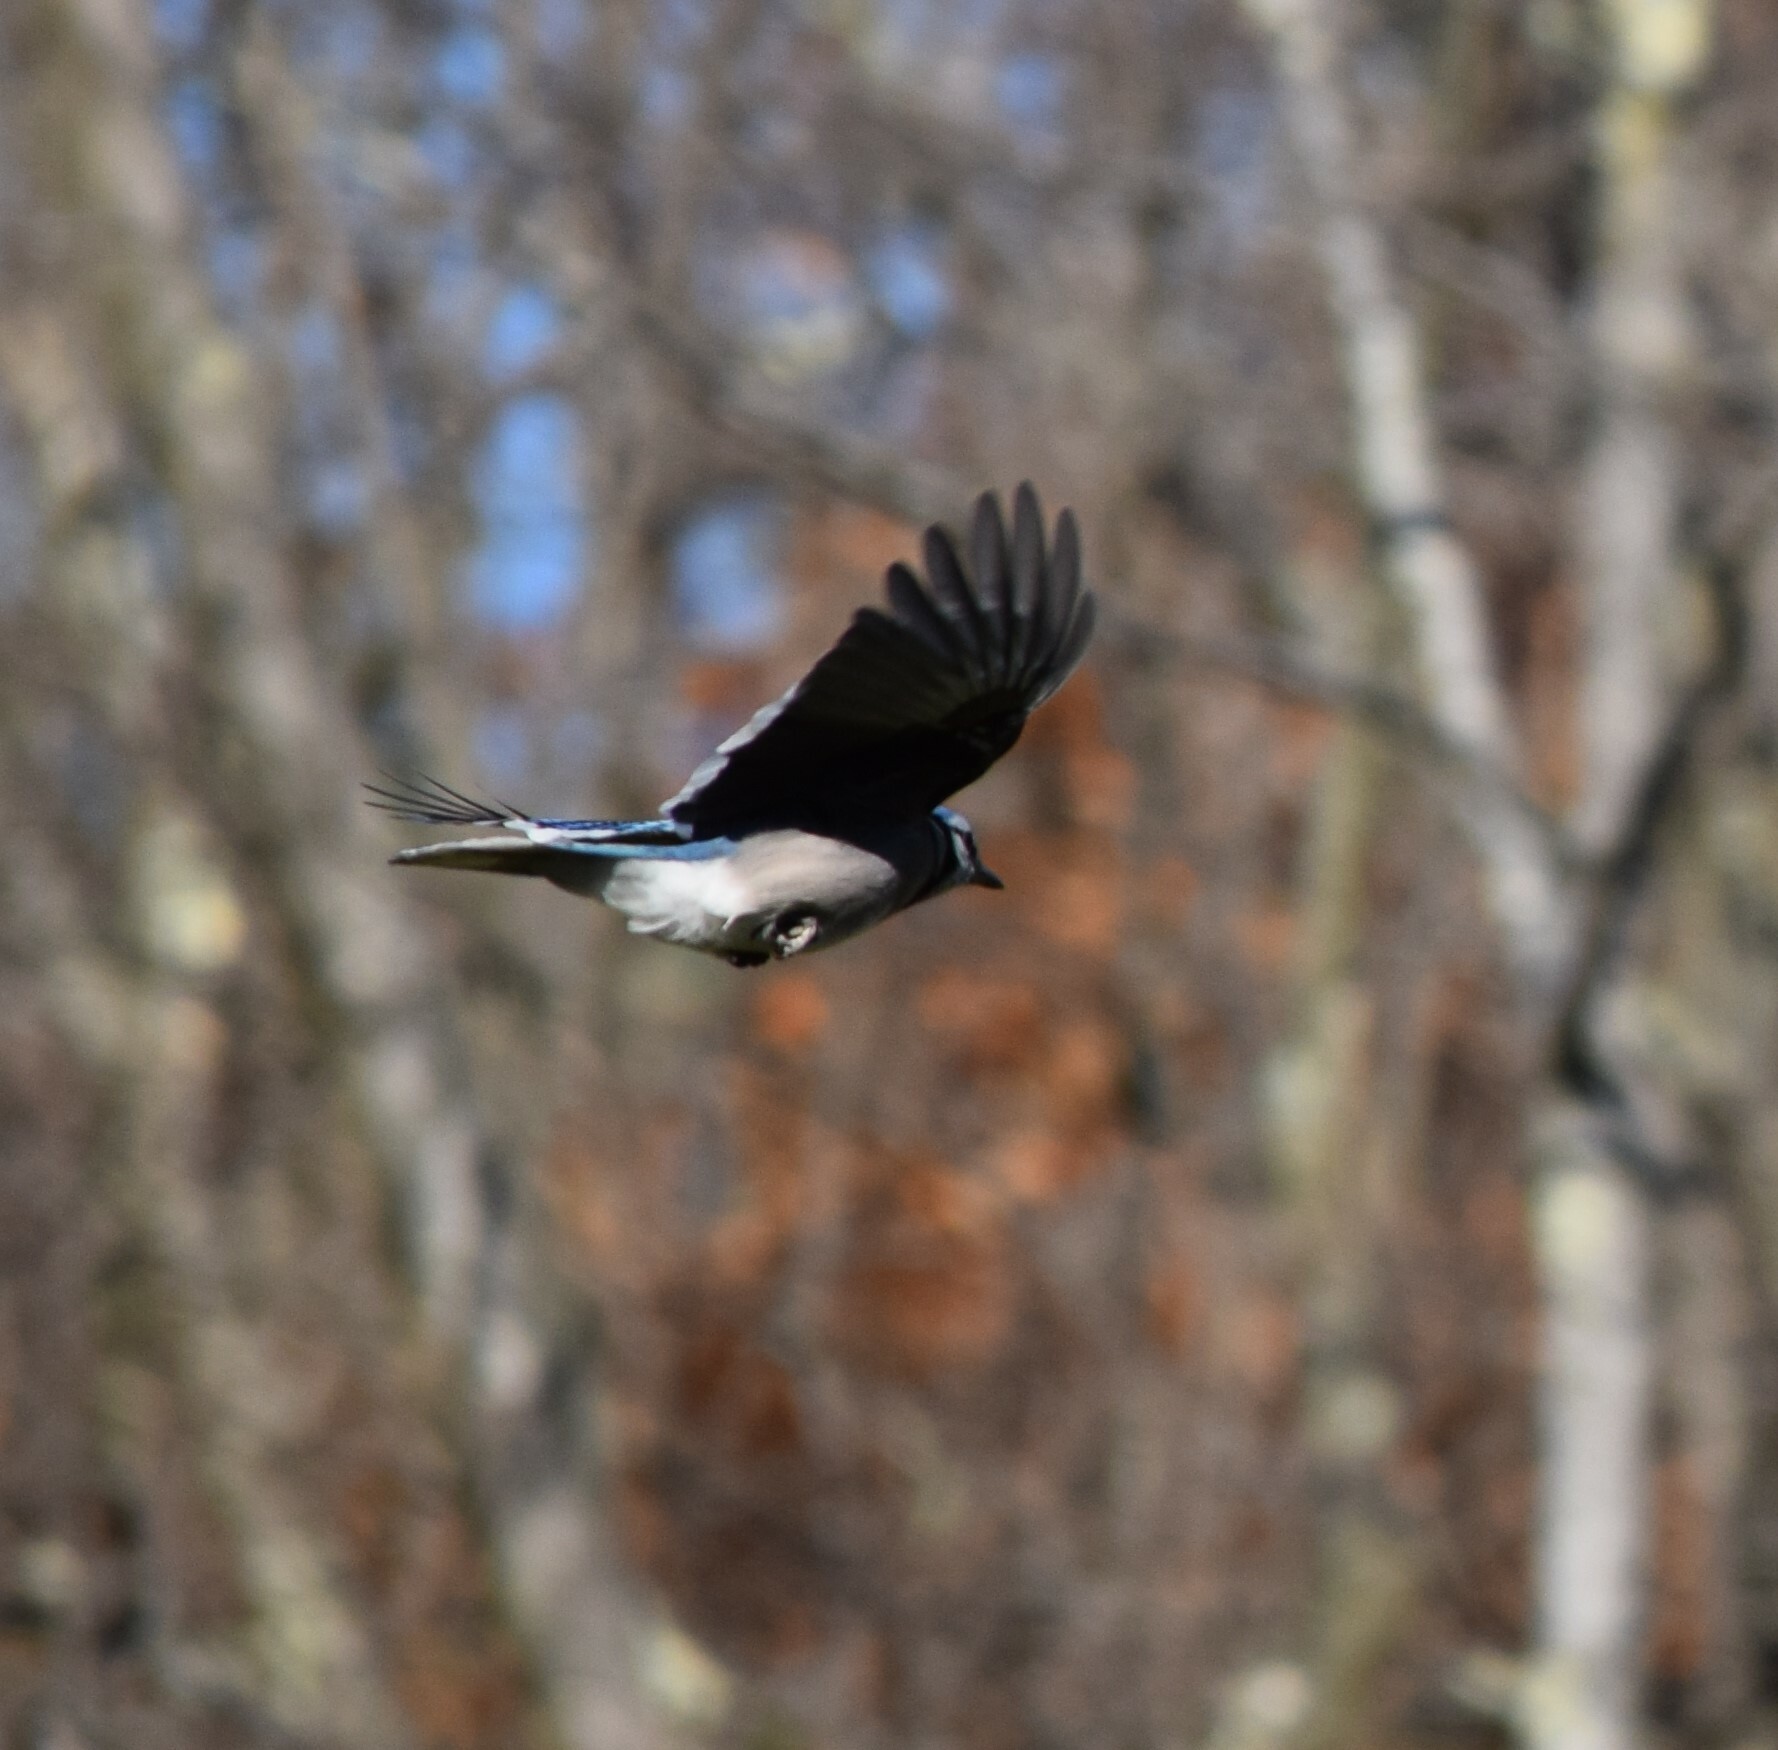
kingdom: Animalia
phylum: Chordata
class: Aves
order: Passeriformes
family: Corvidae
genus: Cyanocitta
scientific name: Cyanocitta cristata
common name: Blue jay
